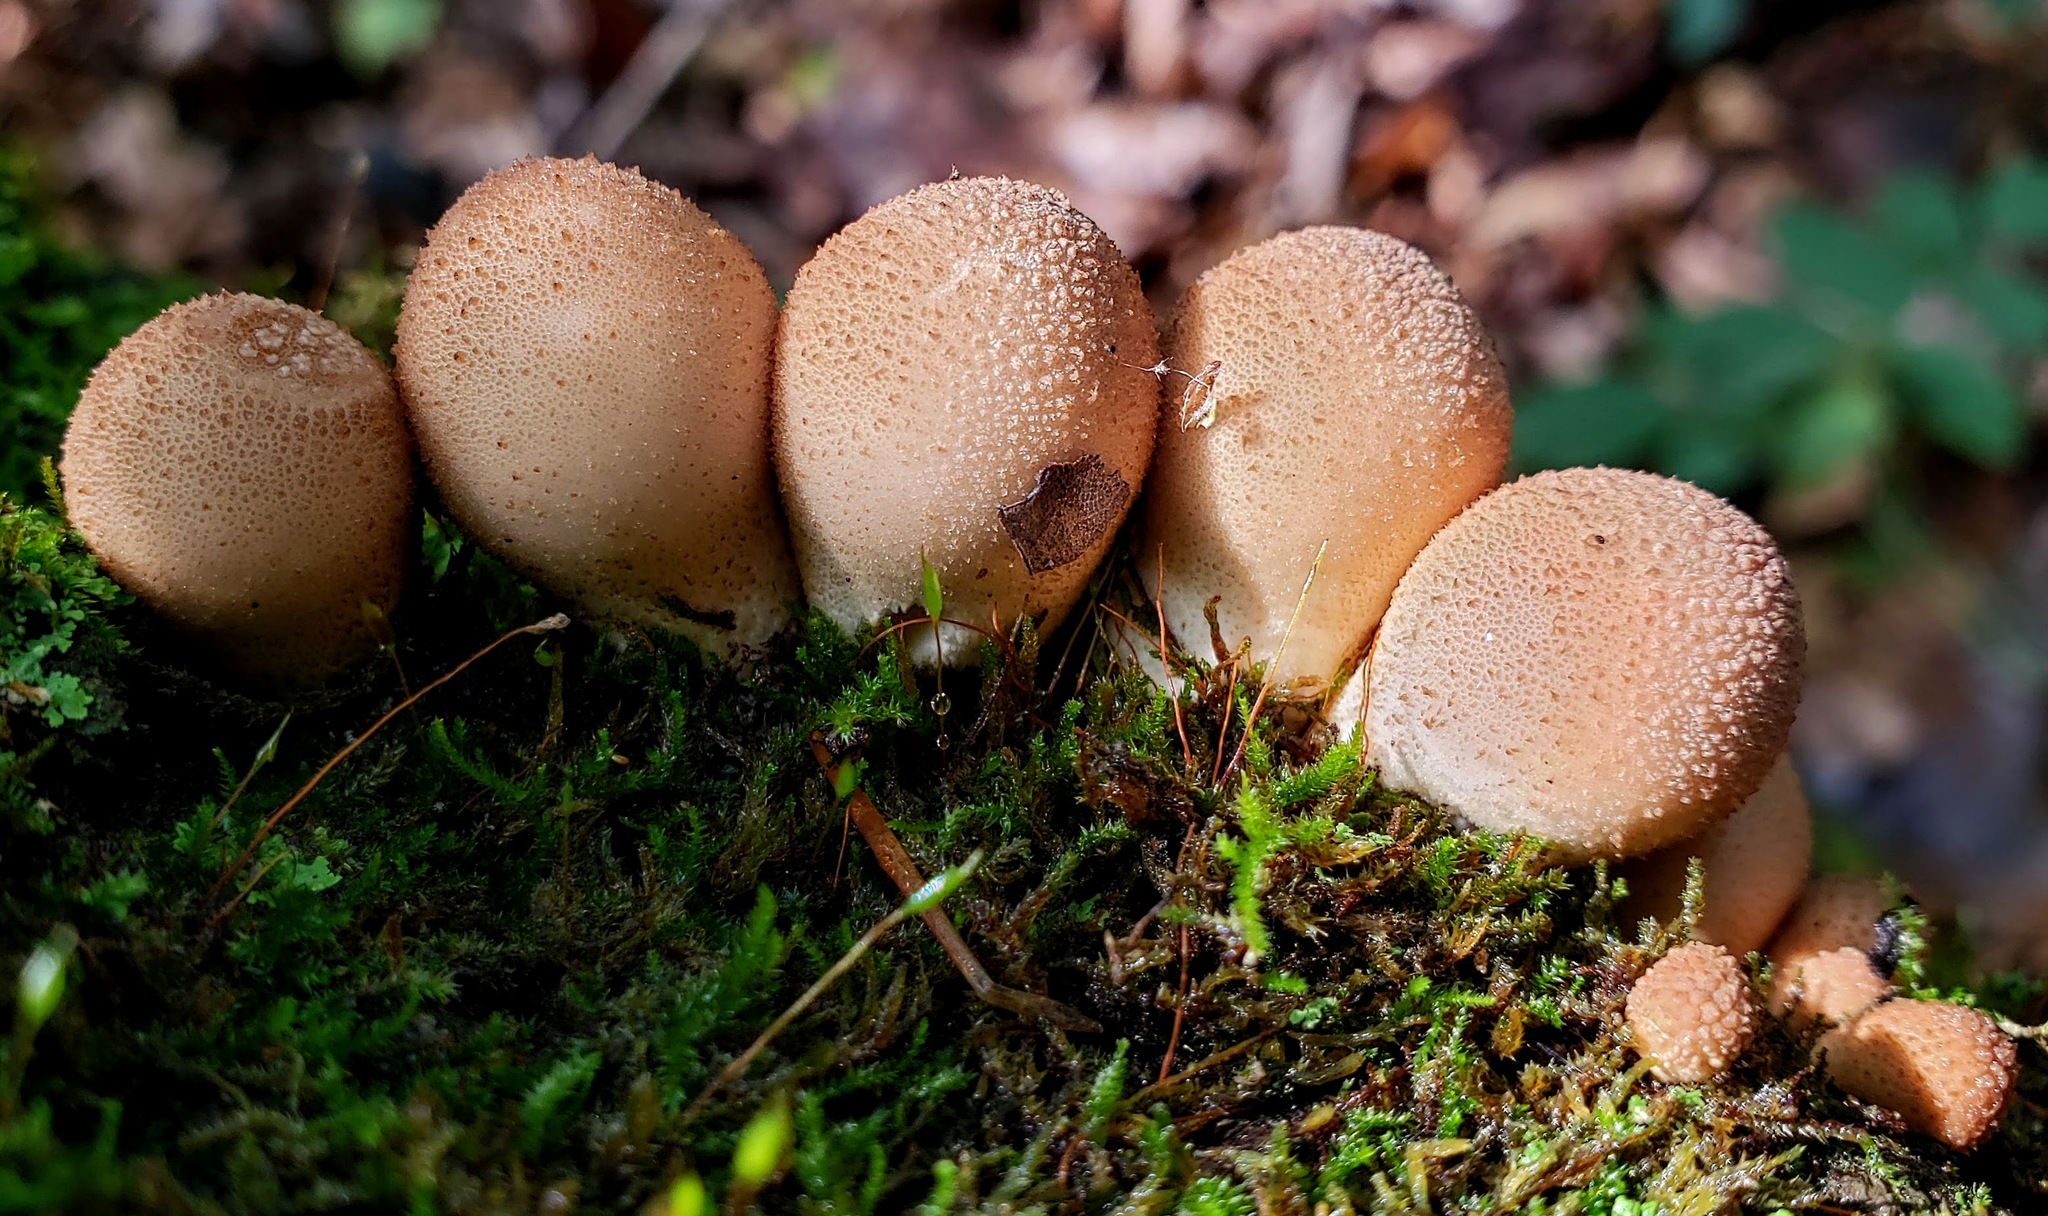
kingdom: Fungi
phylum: Basidiomycota
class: Agaricomycetes
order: Agaricales
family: Lycoperdaceae
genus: Apioperdon
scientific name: Apioperdon pyriforme
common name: Pear-shaped puffball
